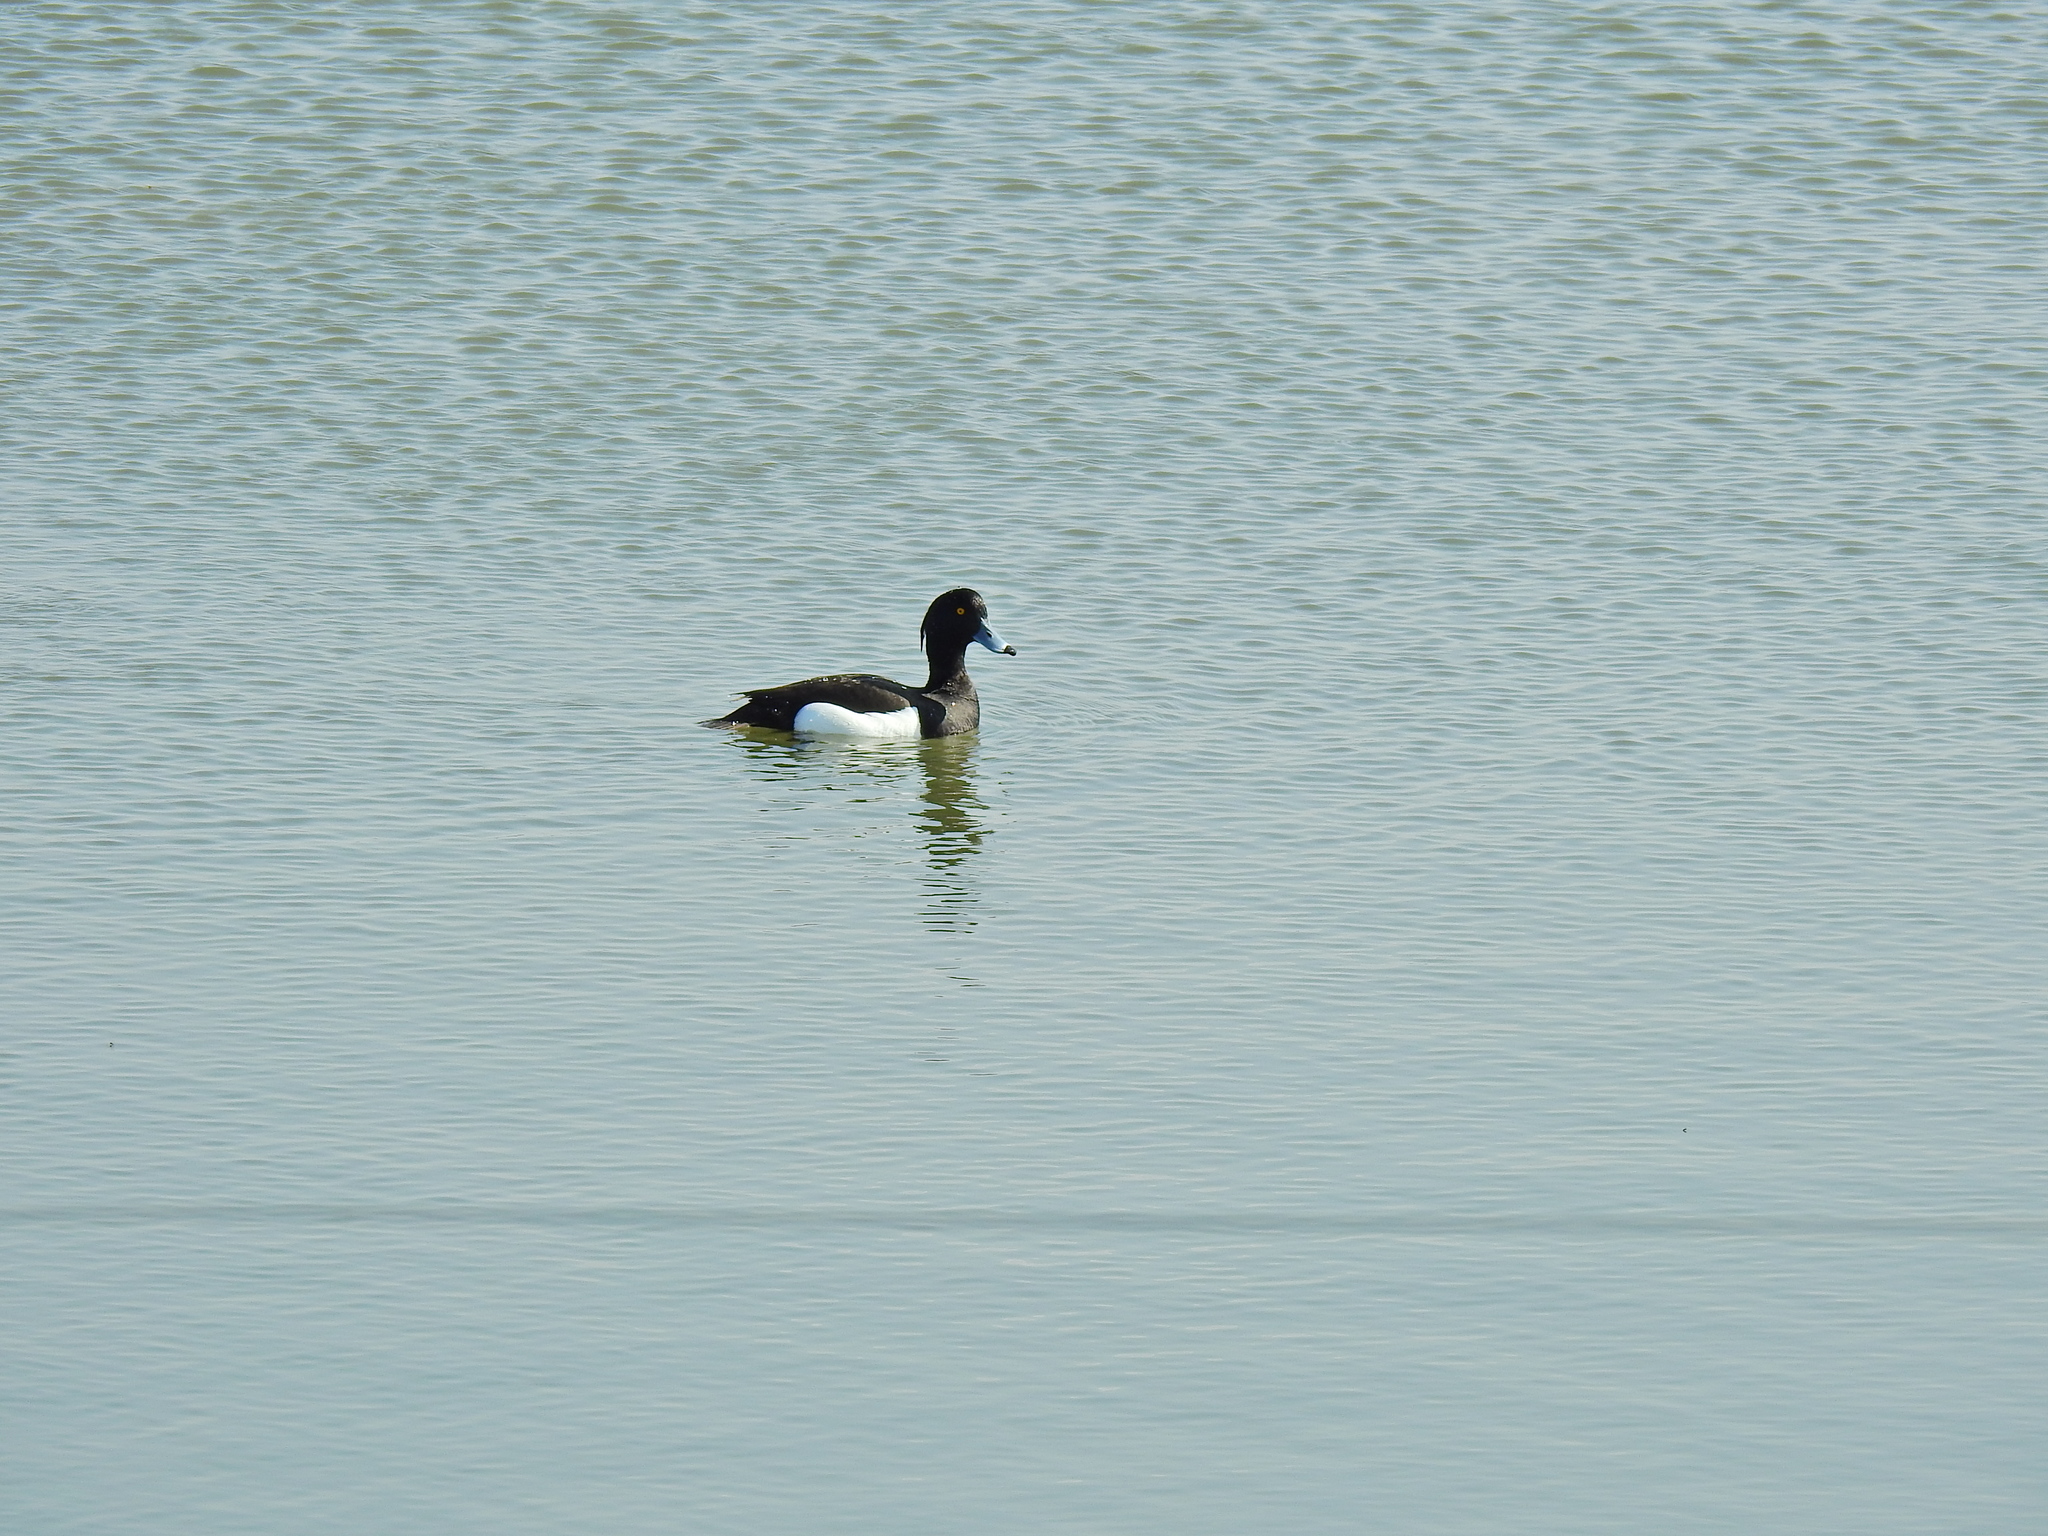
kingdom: Animalia
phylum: Chordata
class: Aves
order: Anseriformes
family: Anatidae
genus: Aythya
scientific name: Aythya fuligula
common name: Tufted duck
